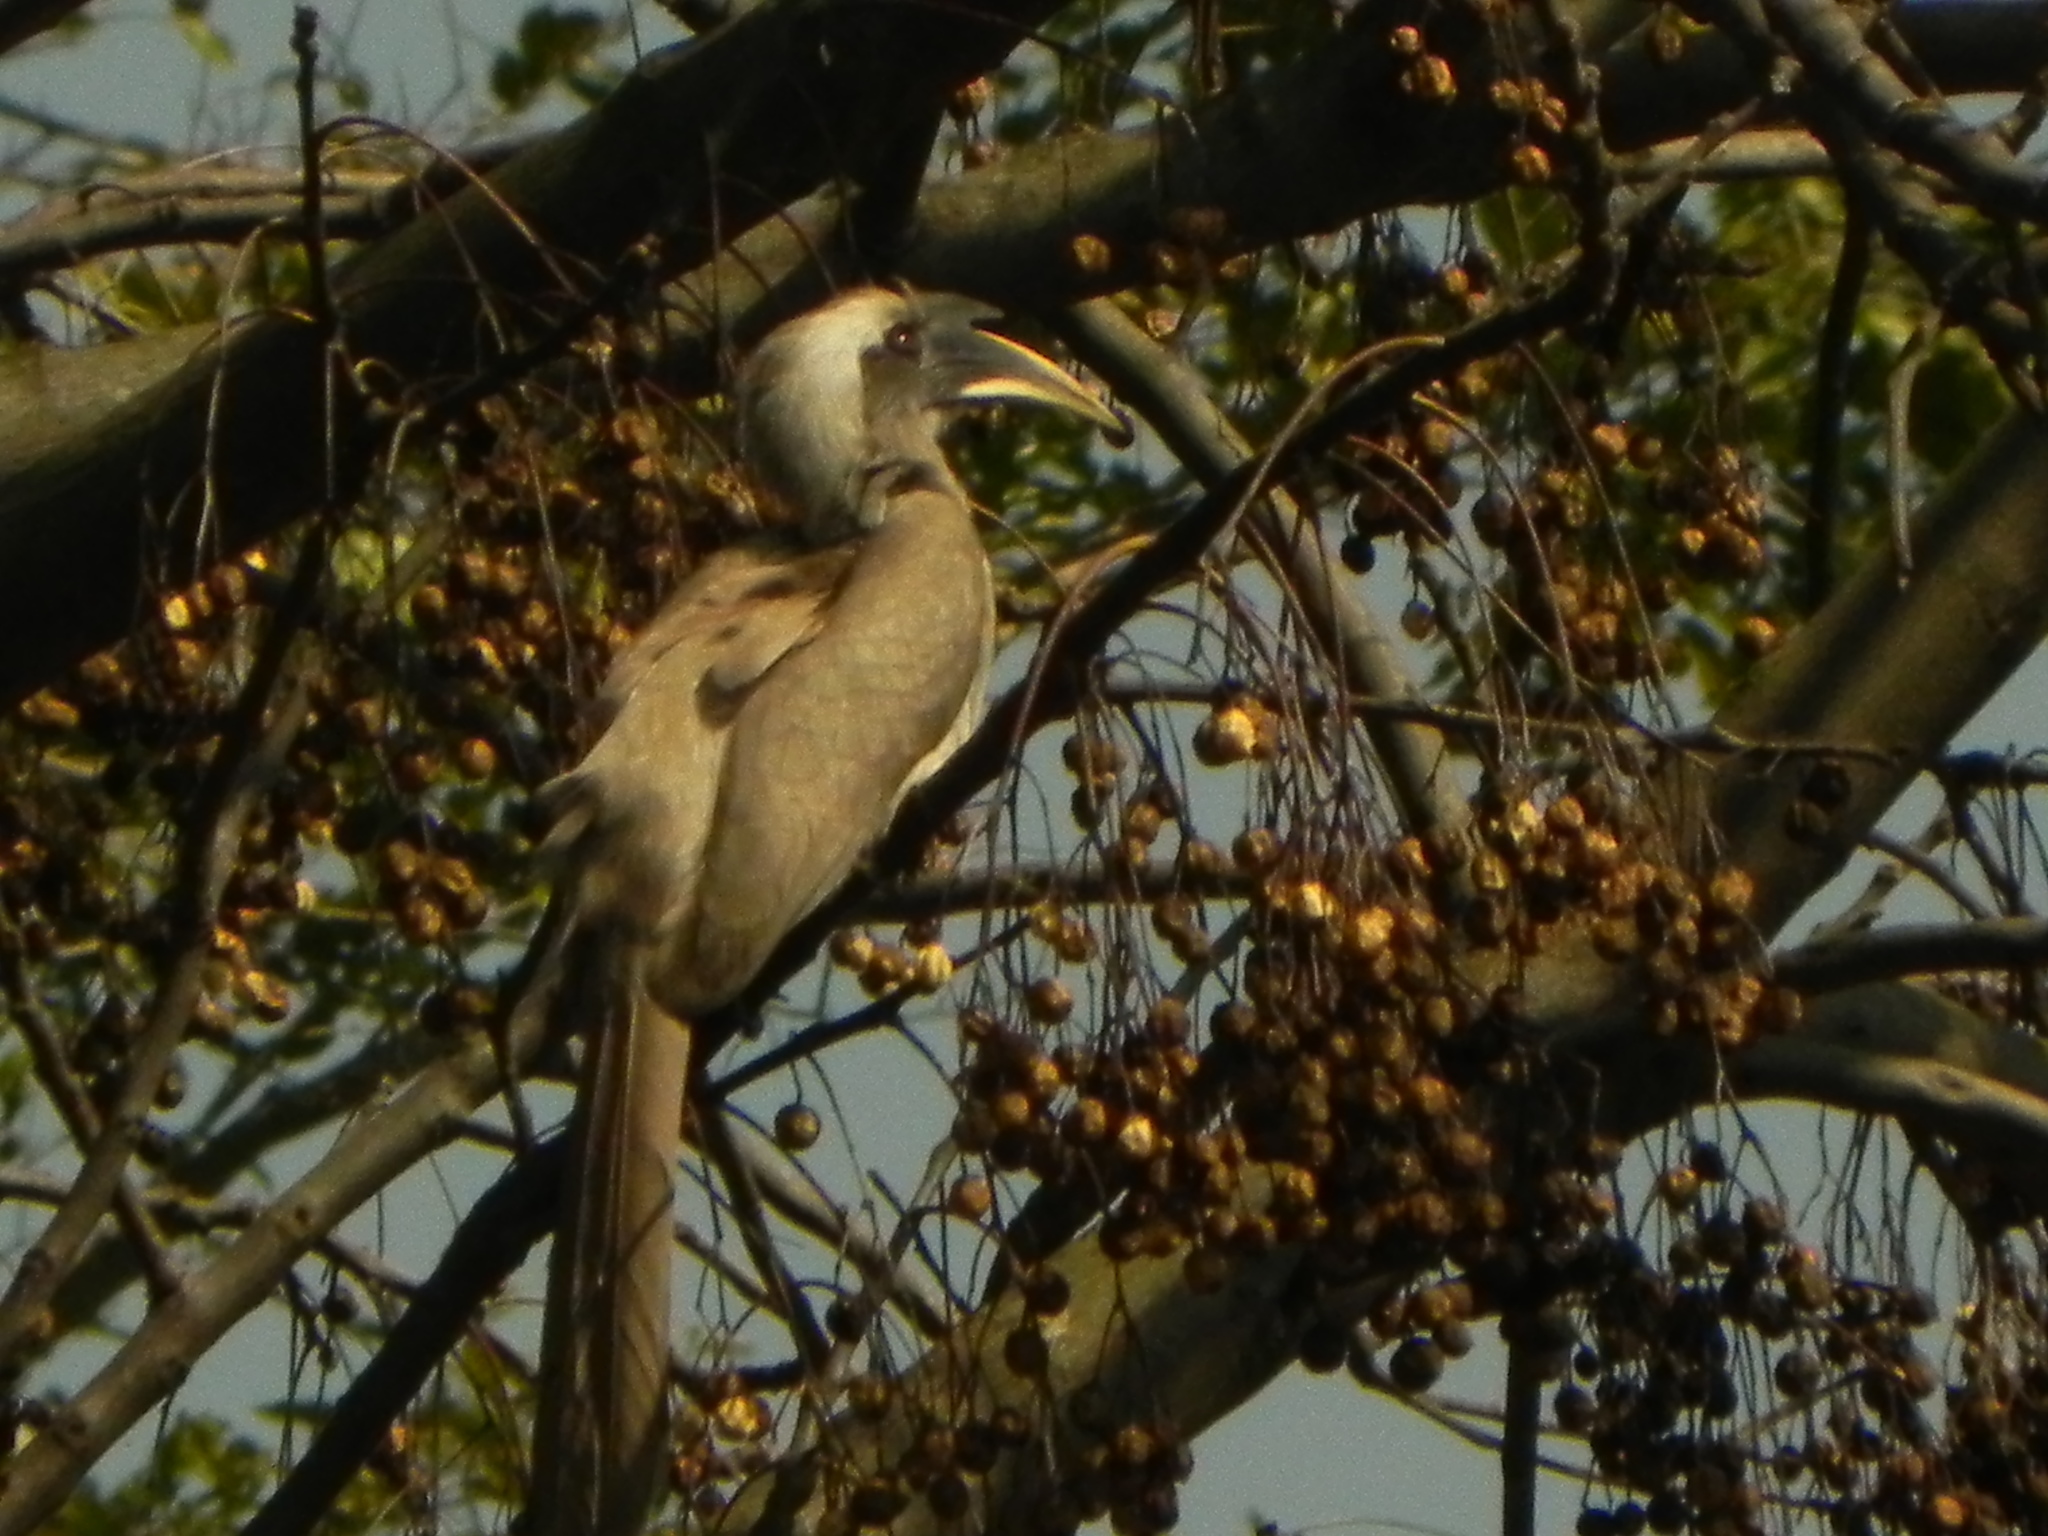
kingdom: Animalia
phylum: Chordata
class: Aves
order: Bucerotiformes
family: Bucerotidae
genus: Ocyceros
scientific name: Ocyceros birostris
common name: Indian grey hornbill
